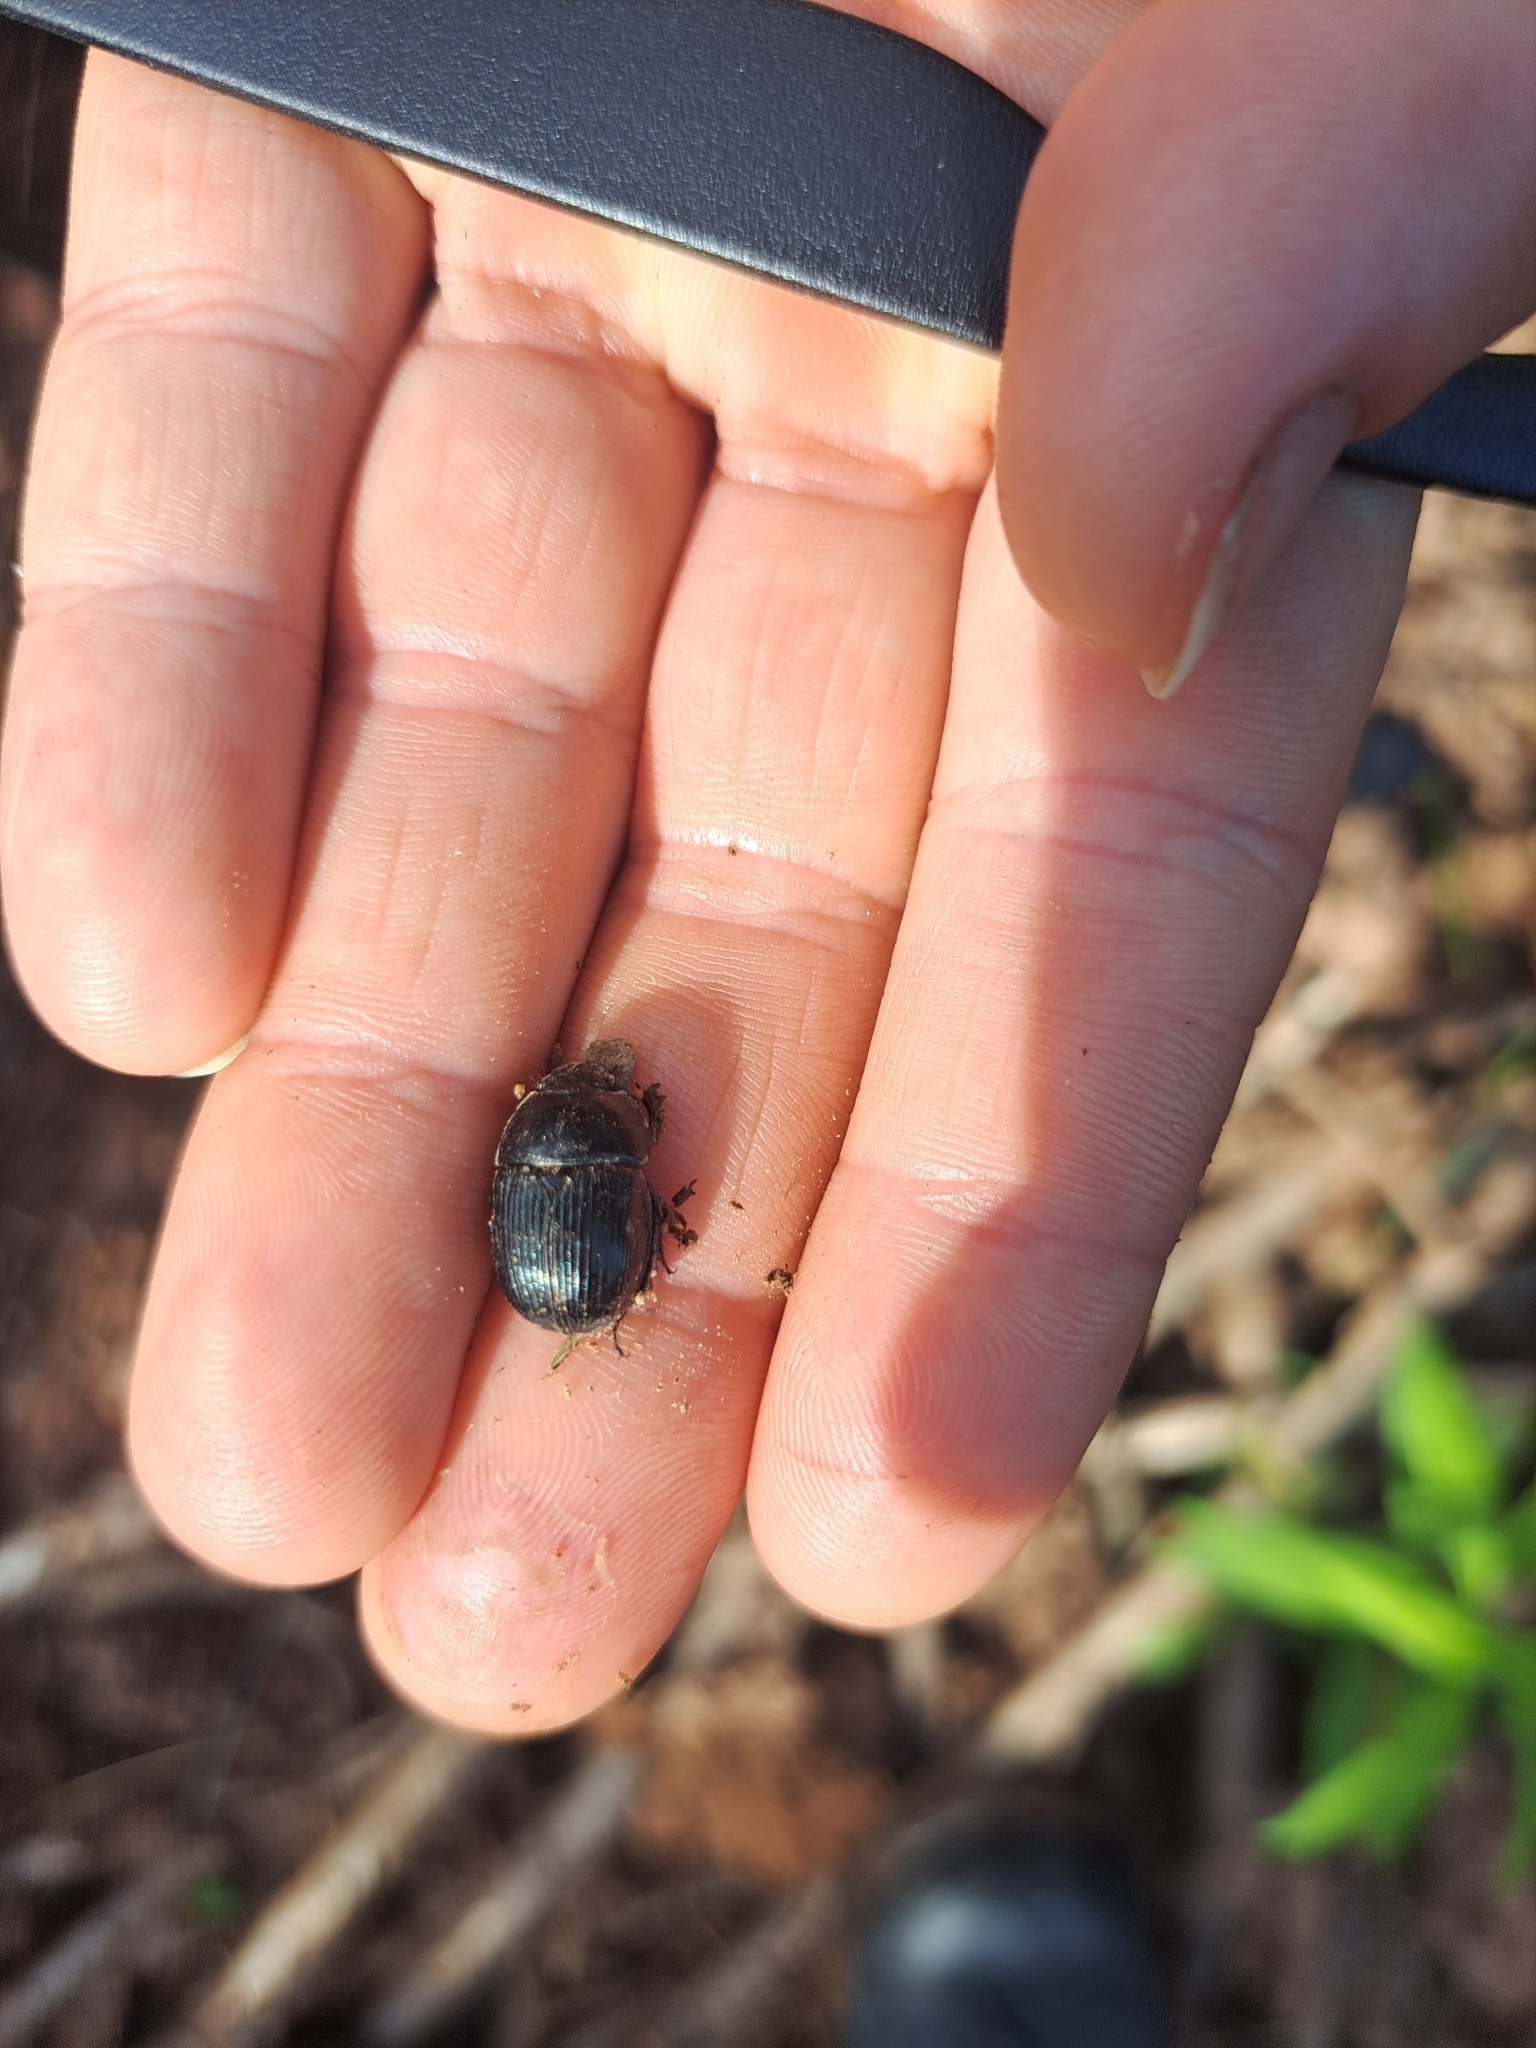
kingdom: Animalia
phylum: Arthropoda
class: Insecta
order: Coleoptera
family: Geotrupidae
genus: Anoplotrupes
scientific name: Anoplotrupes balyi
